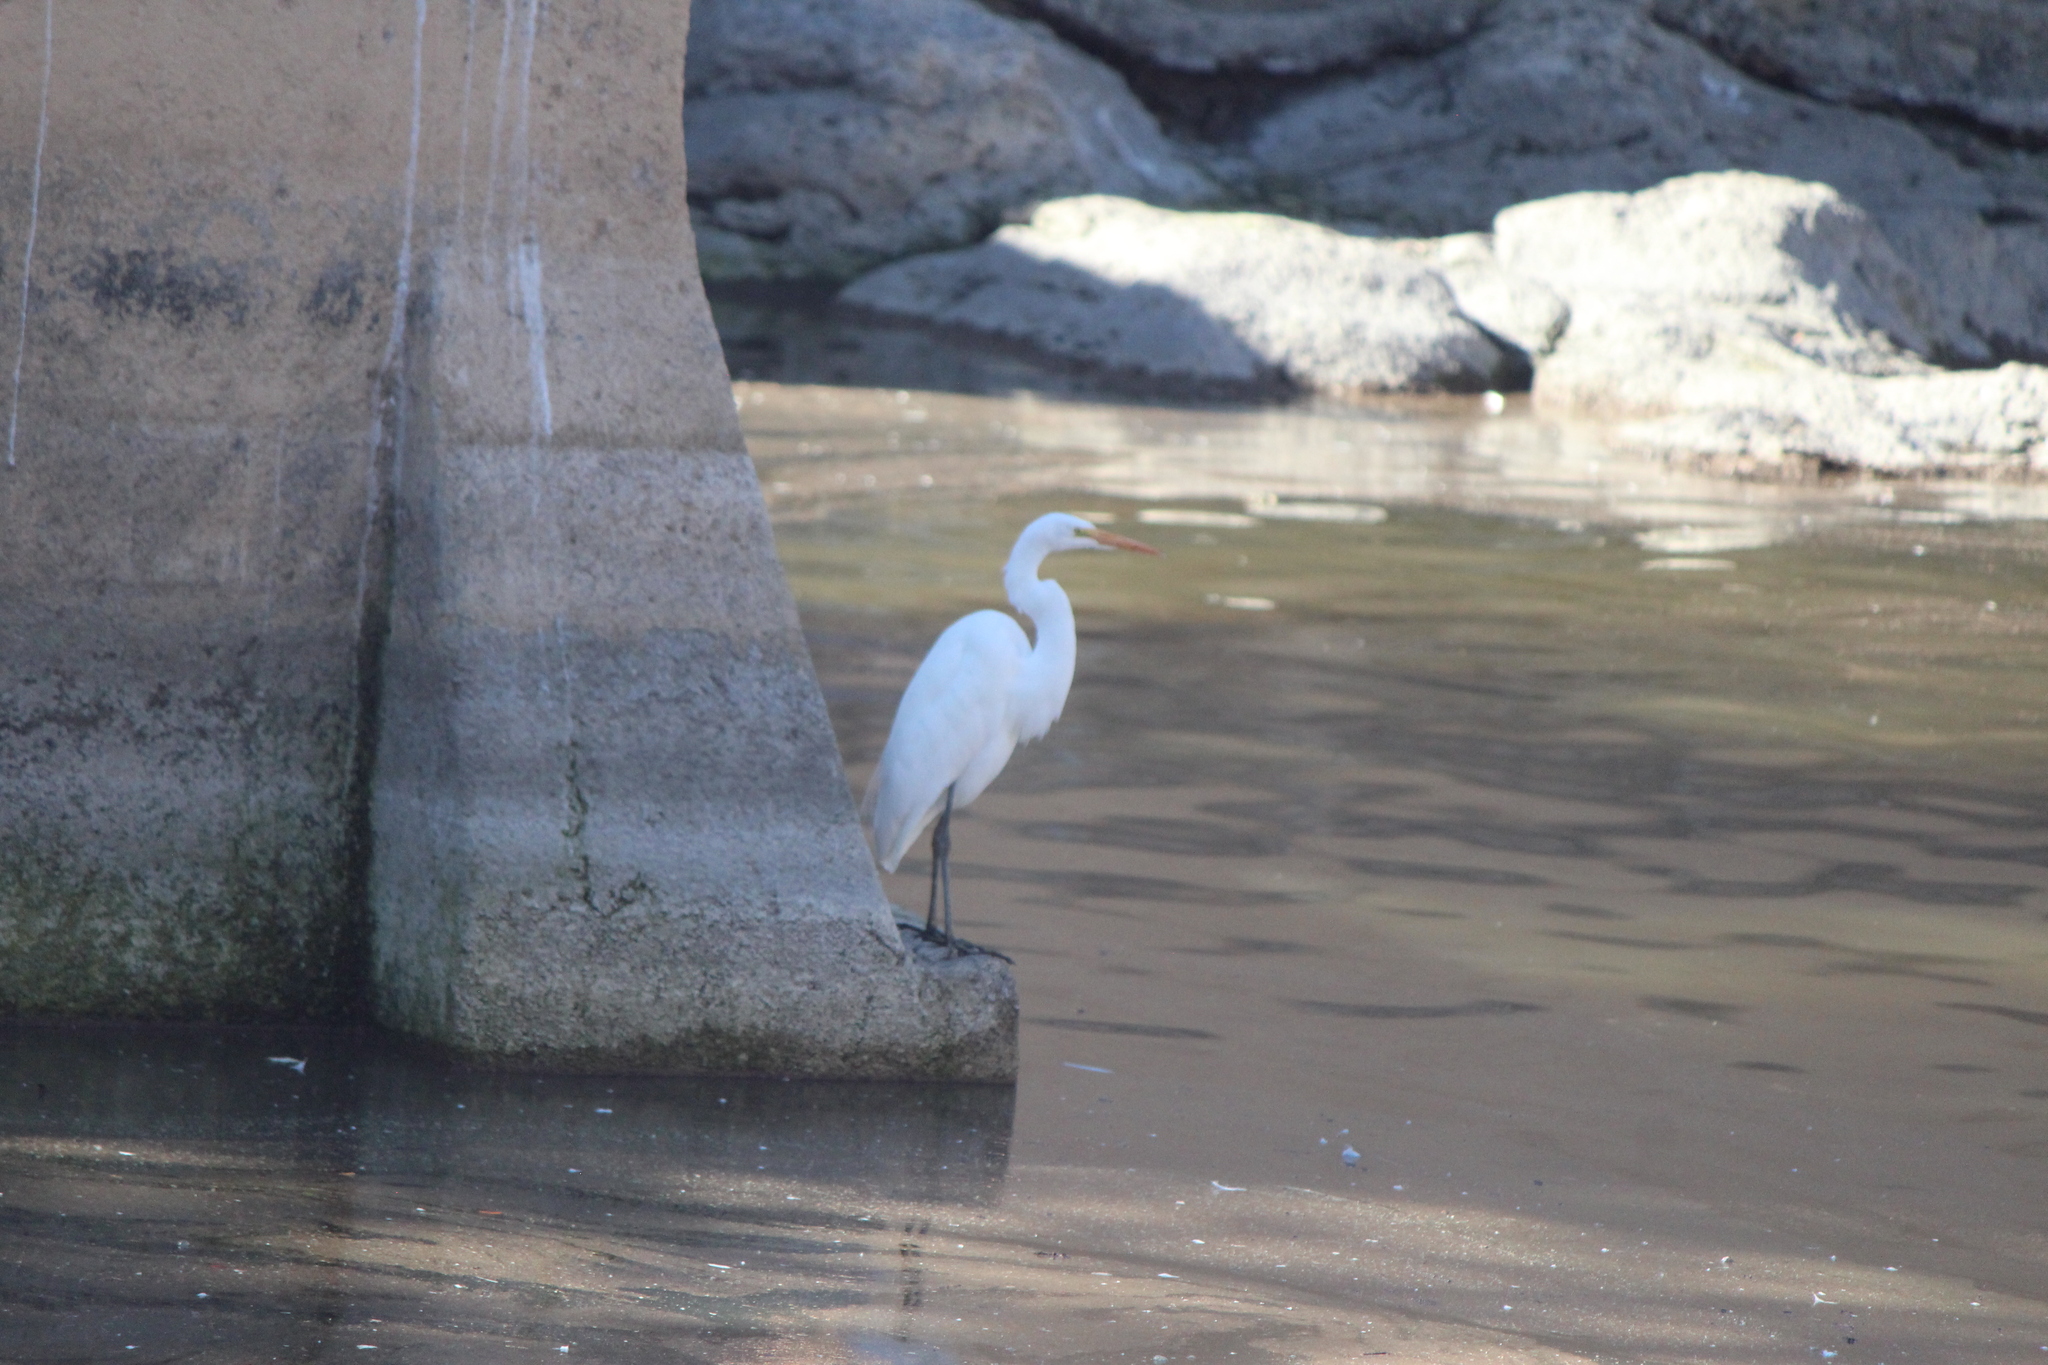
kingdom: Animalia
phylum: Chordata
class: Aves
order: Pelecaniformes
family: Ardeidae
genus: Ardea
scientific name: Ardea alba
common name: Great egret
